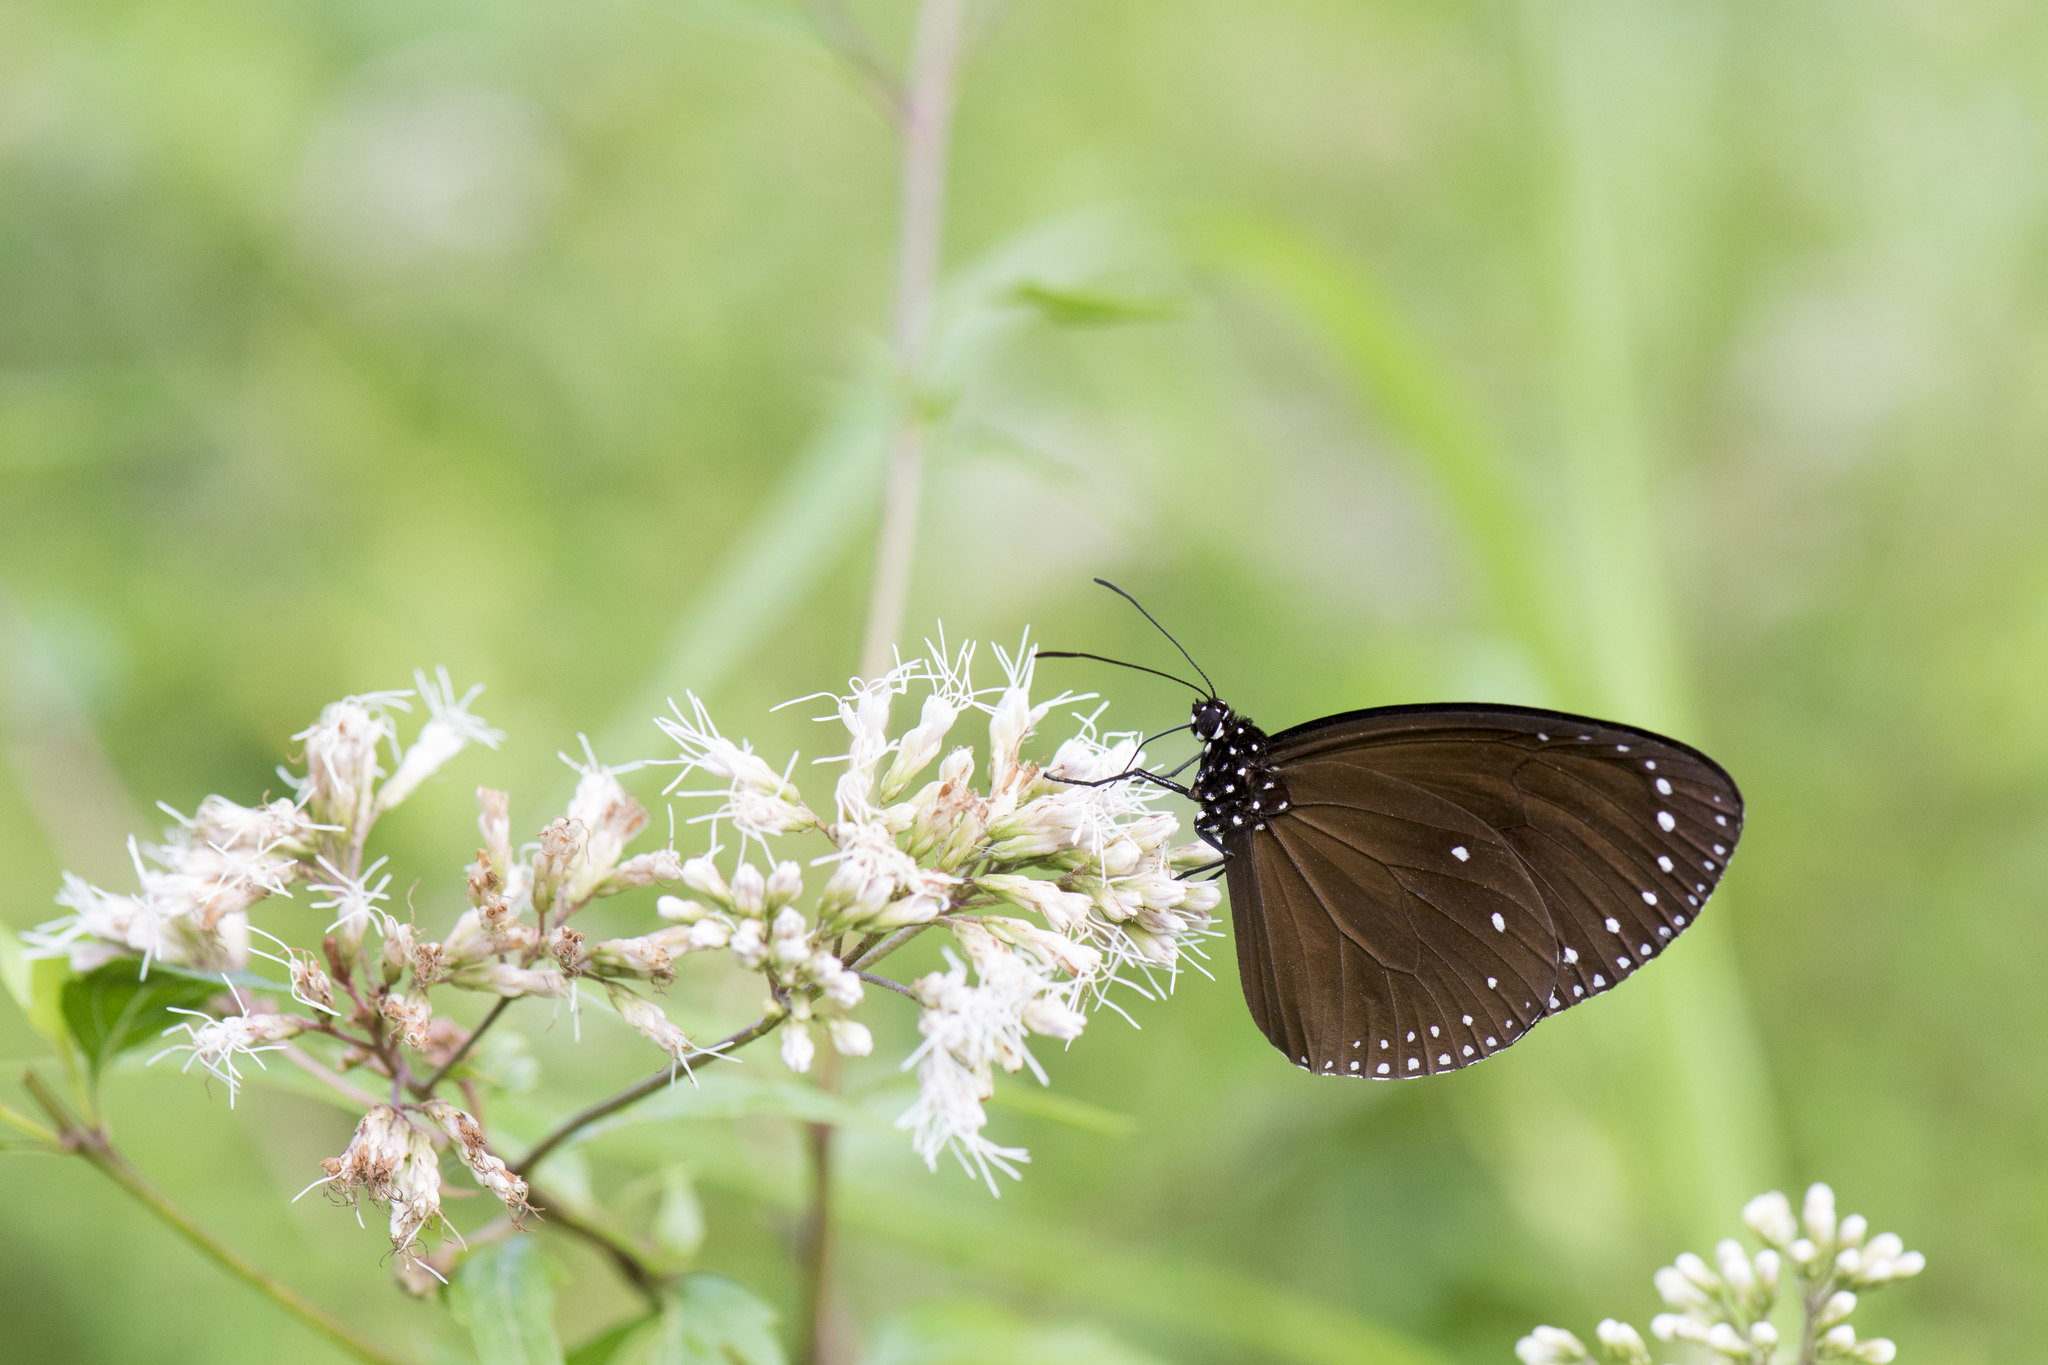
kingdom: Animalia
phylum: Arthropoda
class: Insecta
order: Lepidoptera
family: Nymphalidae
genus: Euploea
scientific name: Euploea tulliolus
